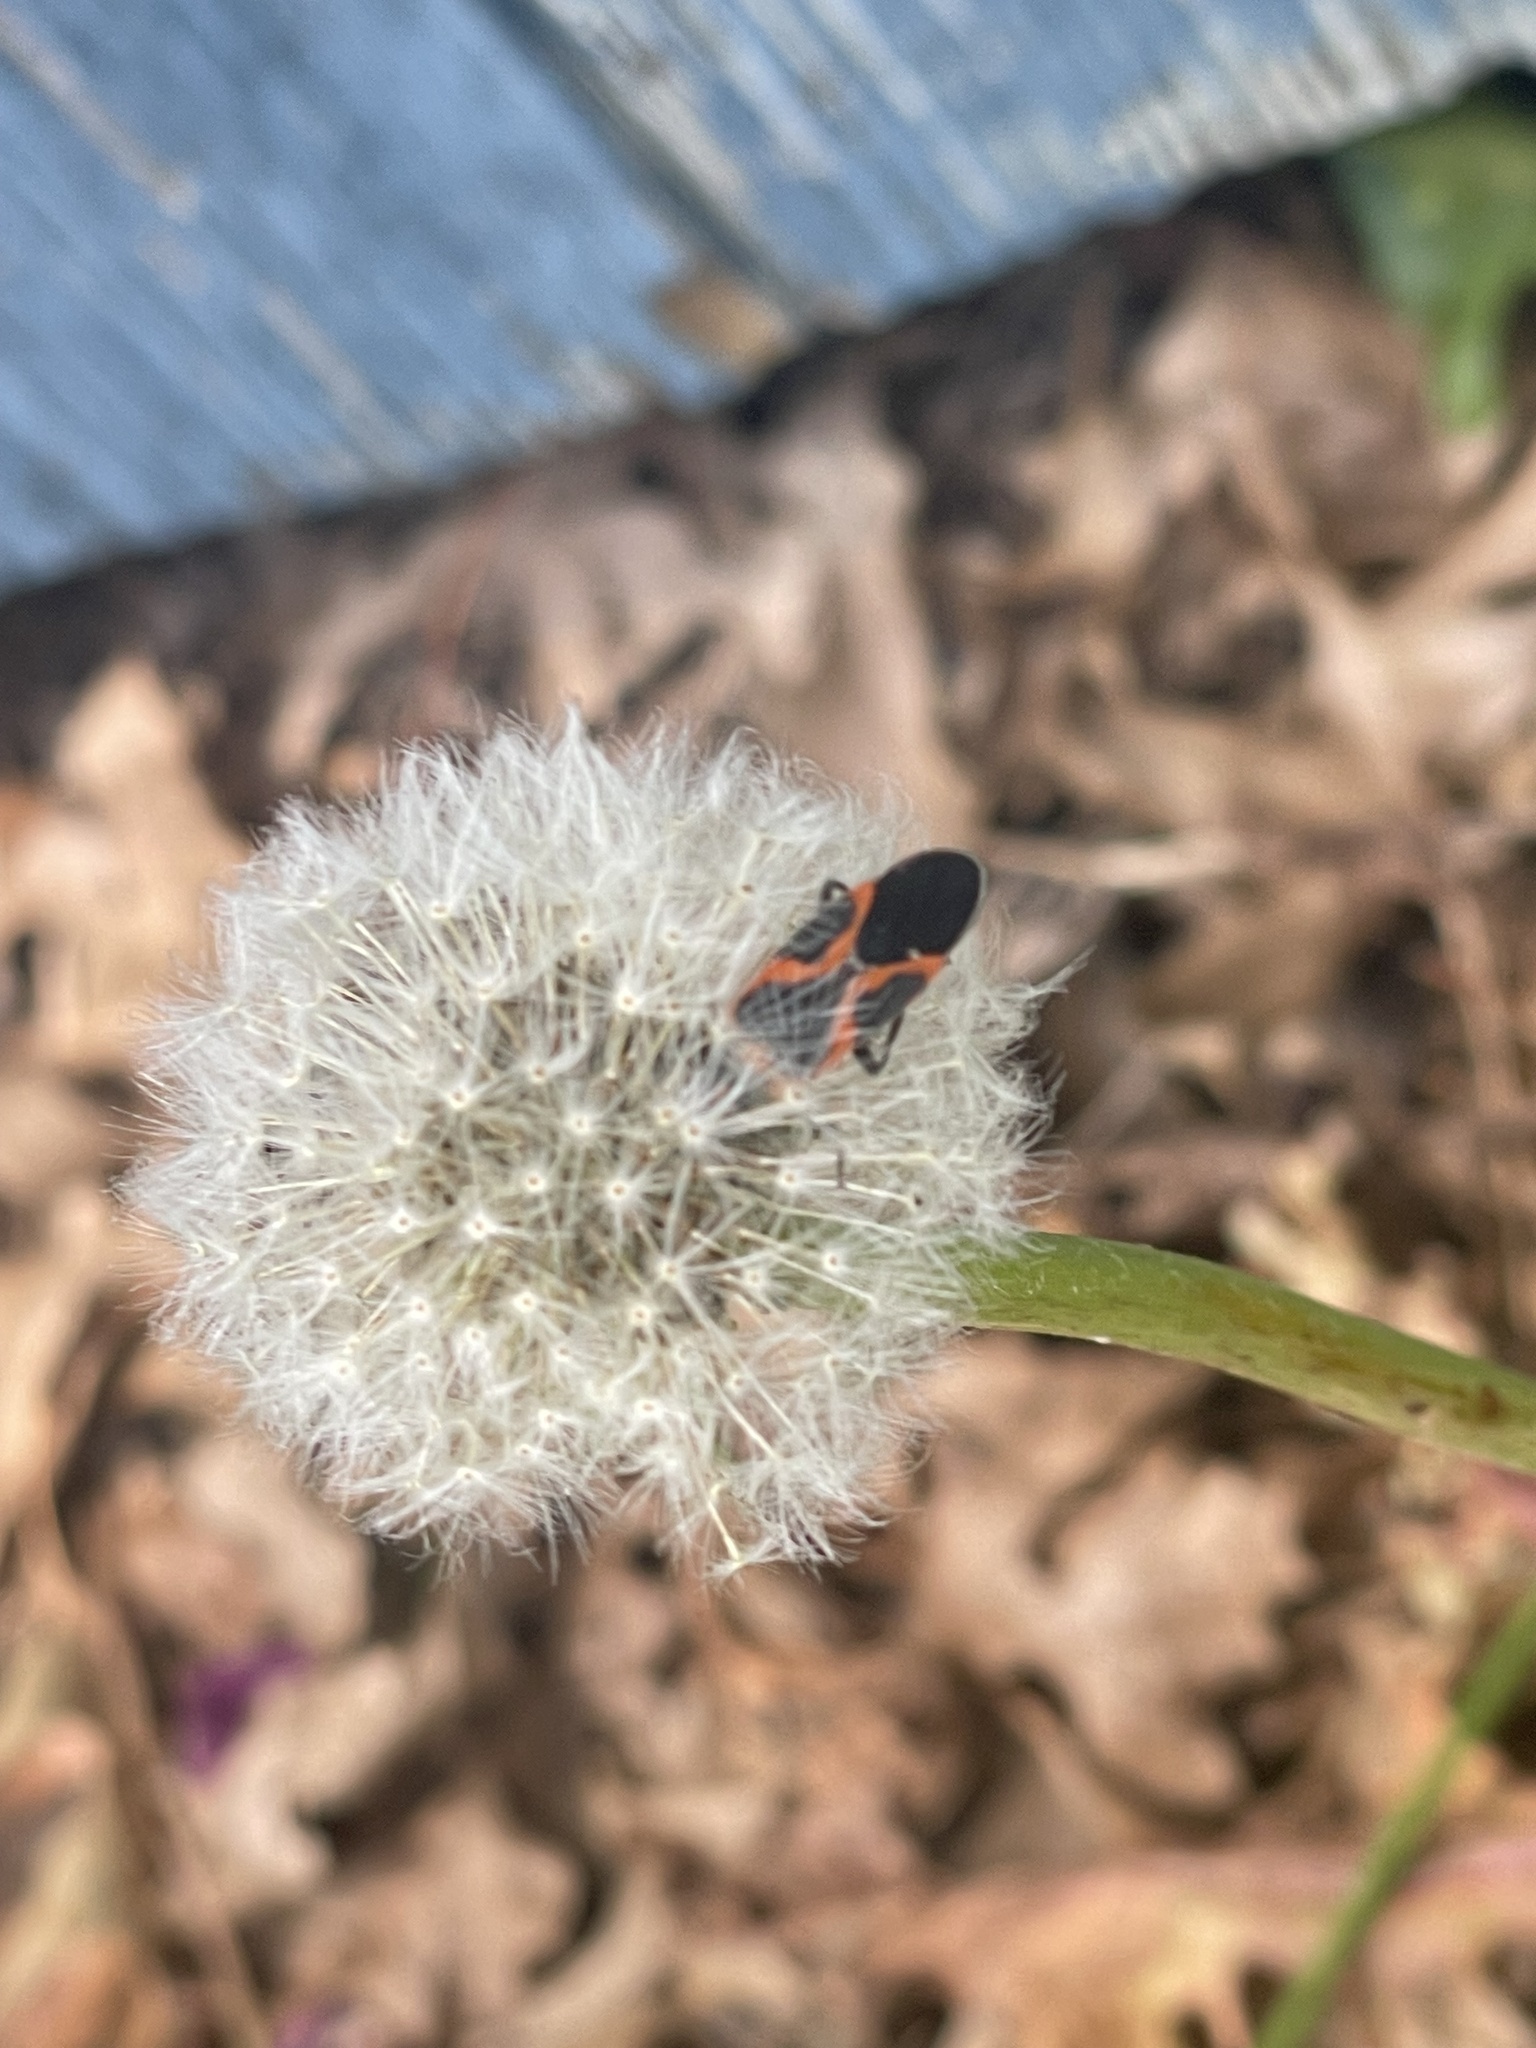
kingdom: Animalia
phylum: Arthropoda
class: Insecta
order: Hemiptera
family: Lygaeidae
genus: Lygaeus
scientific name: Lygaeus kalmii
